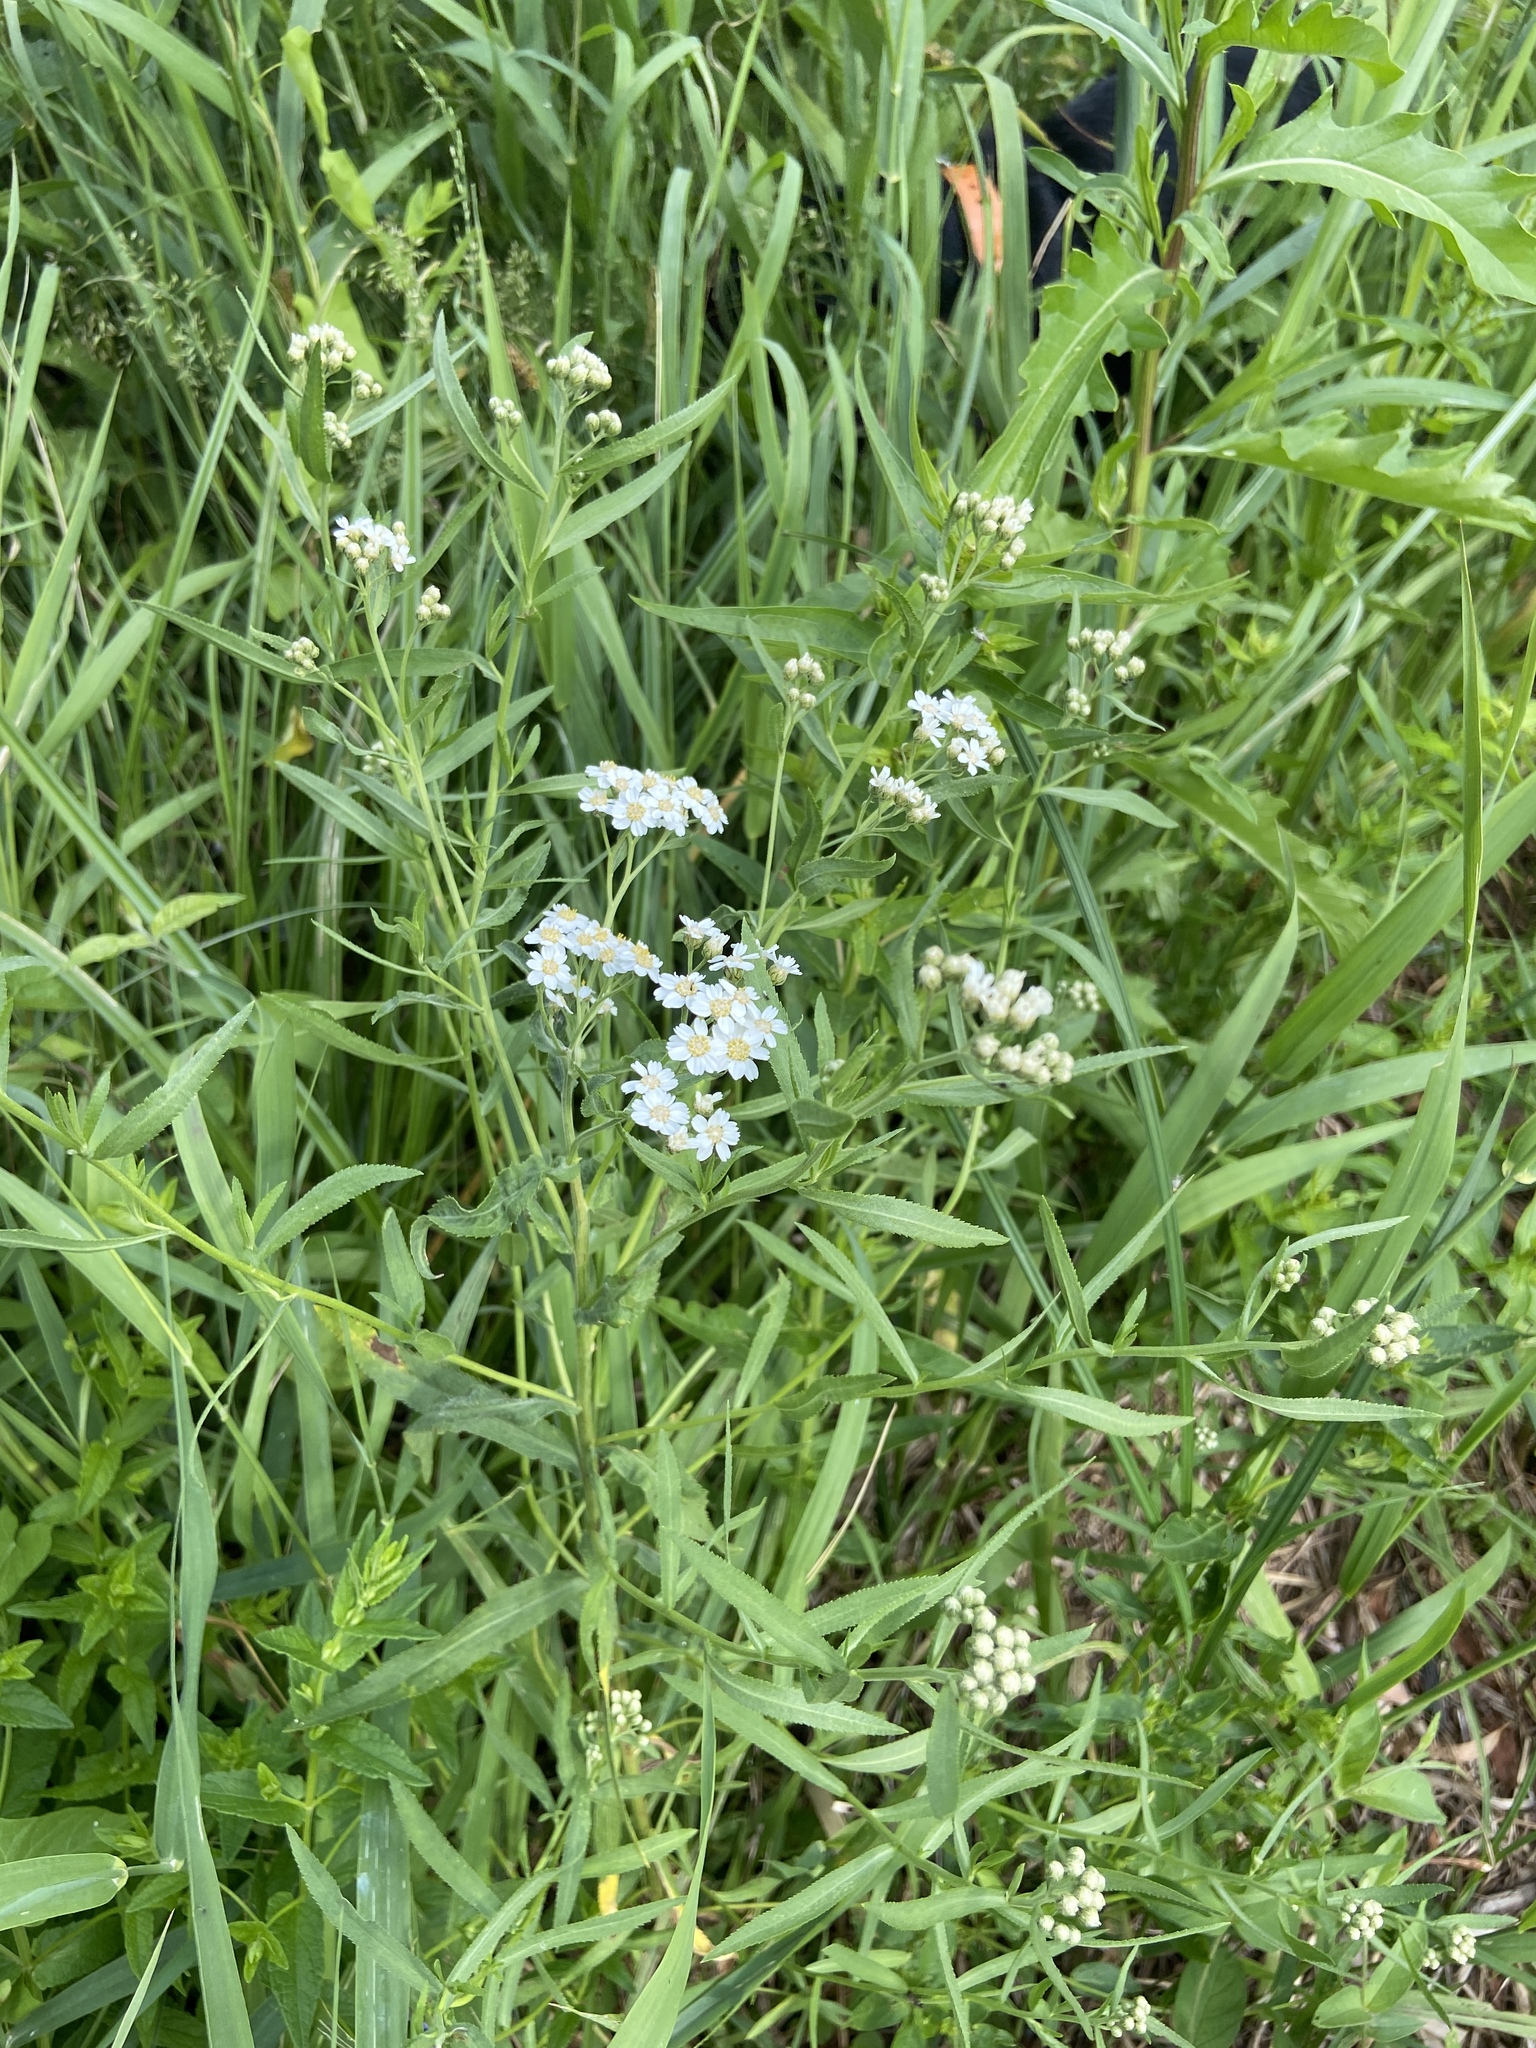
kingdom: Plantae
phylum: Tracheophyta
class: Magnoliopsida
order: Asterales
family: Asteraceae
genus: Achillea
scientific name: Achillea salicifolia
